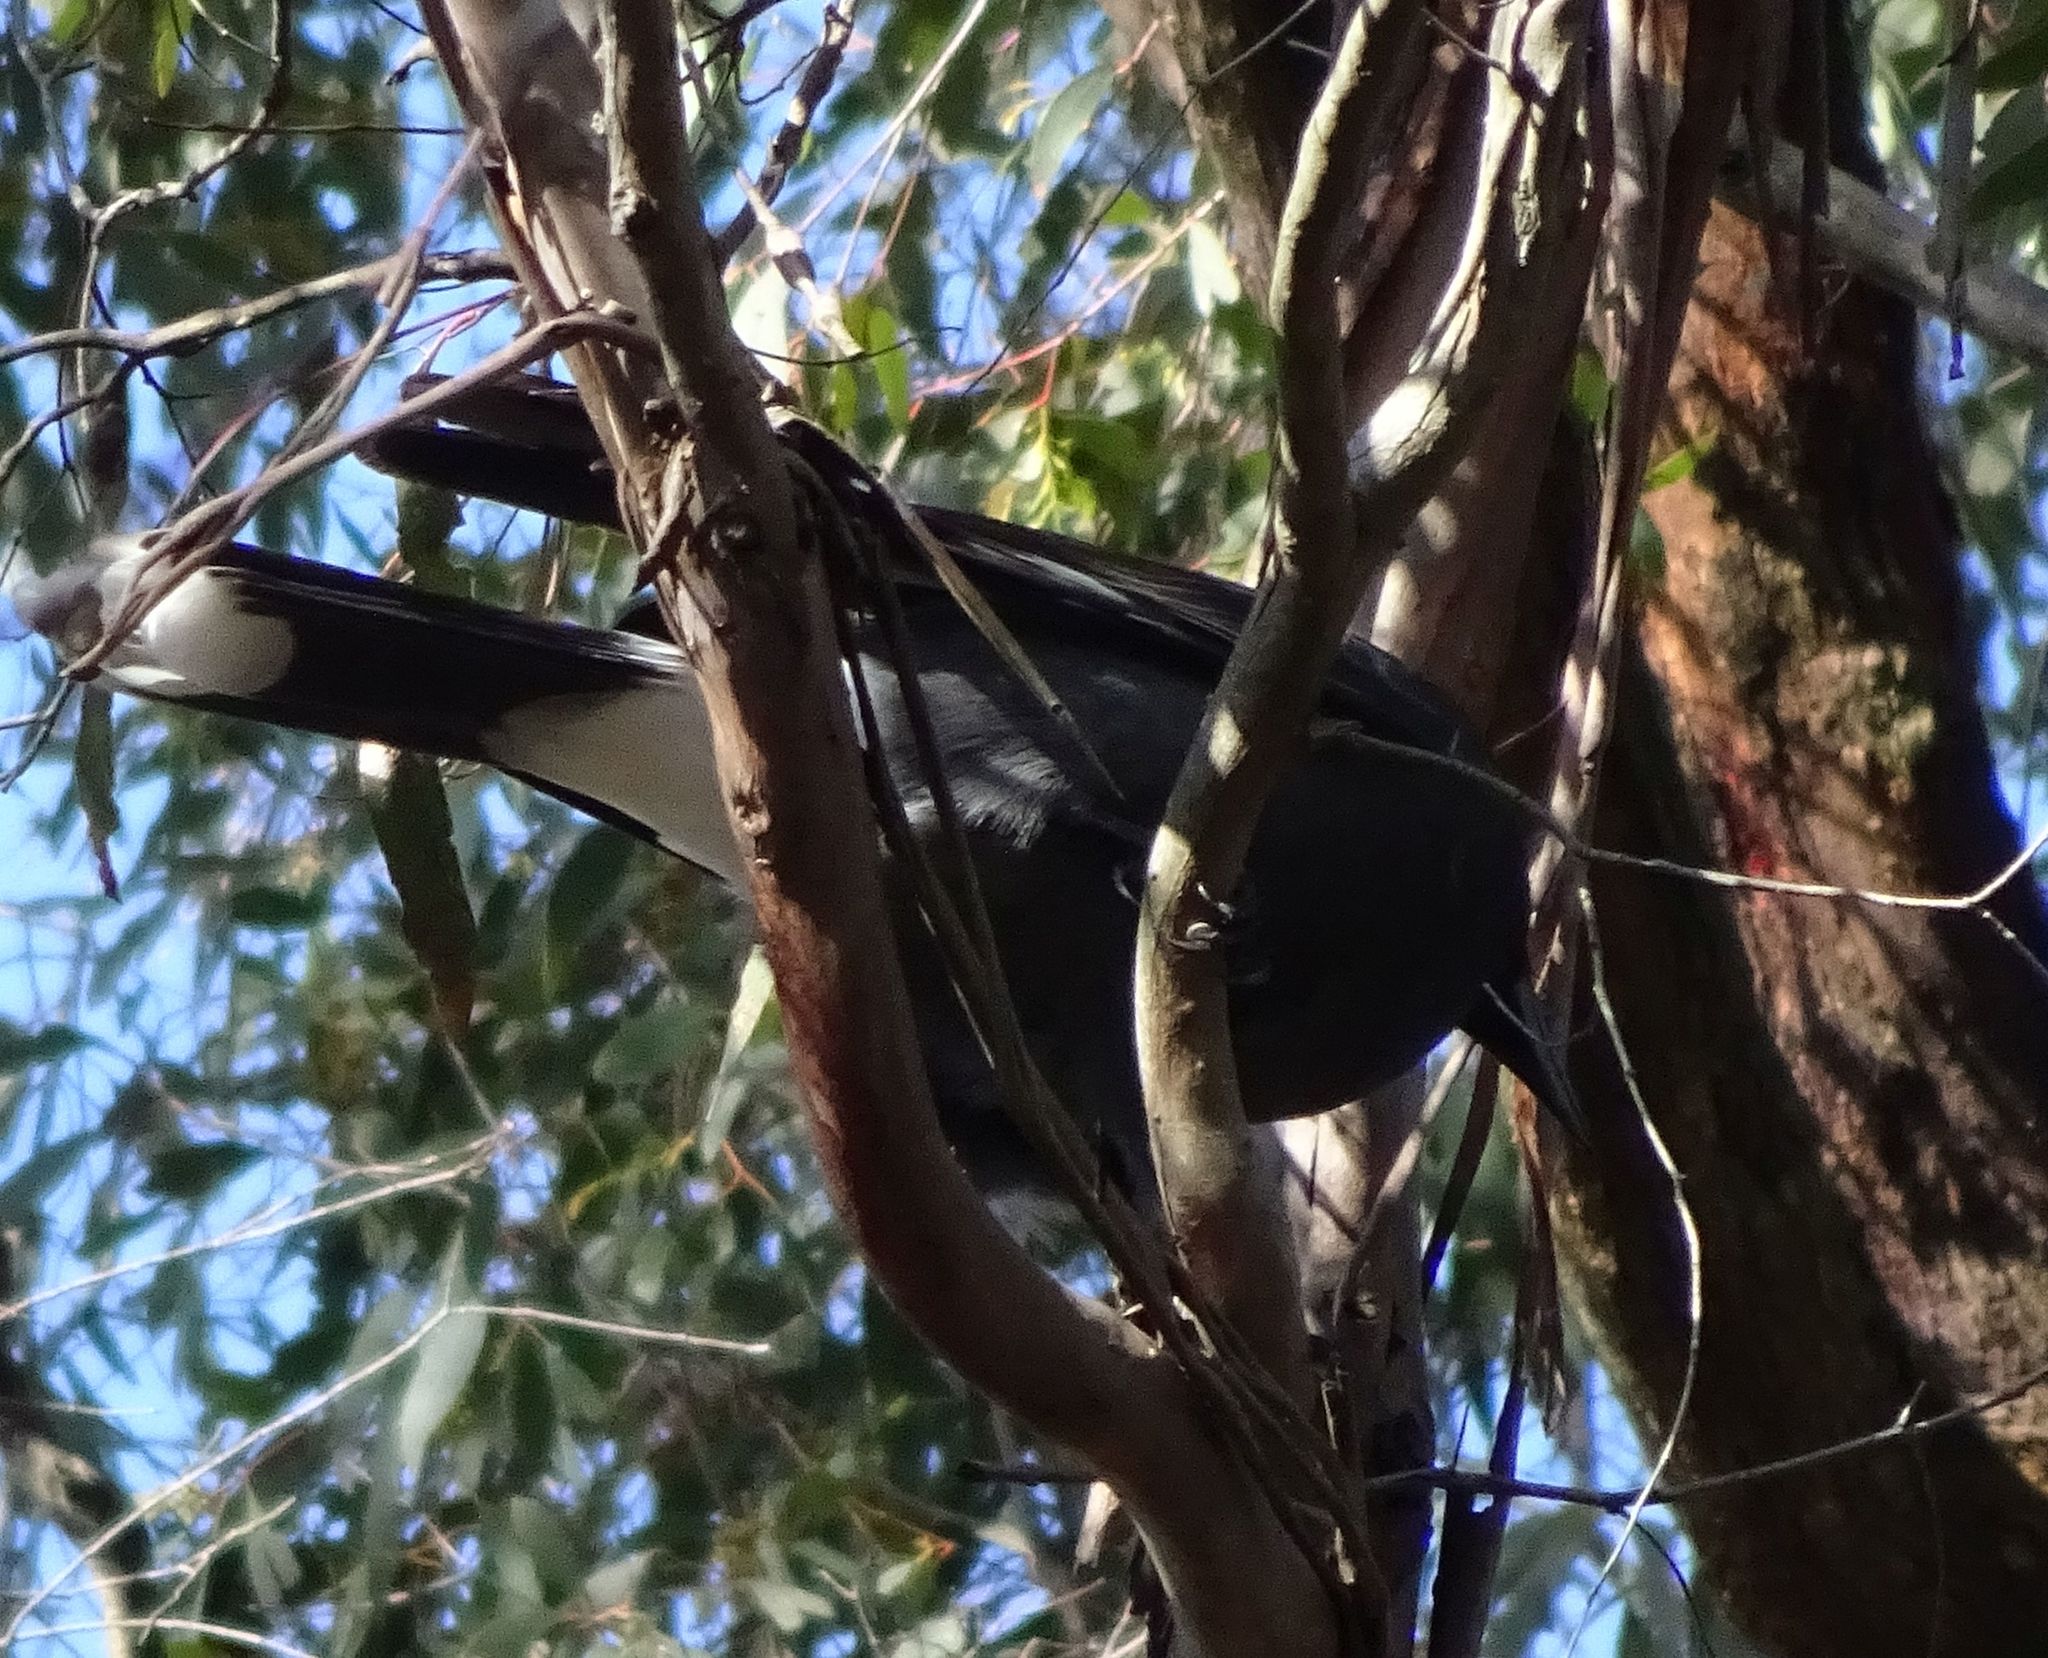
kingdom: Animalia
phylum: Chordata
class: Aves
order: Passeriformes
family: Cracticidae
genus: Strepera
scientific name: Strepera graculina
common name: Pied currawong
